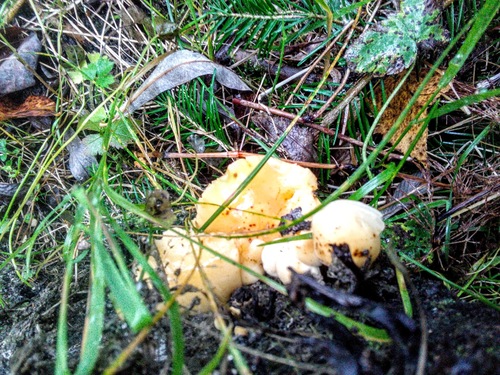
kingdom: Fungi
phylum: Basidiomycota
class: Agaricomycetes
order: Agaricales
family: Physalacriaceae
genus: Flammulina
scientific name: Flammulina velutipes
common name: Velvet shank
